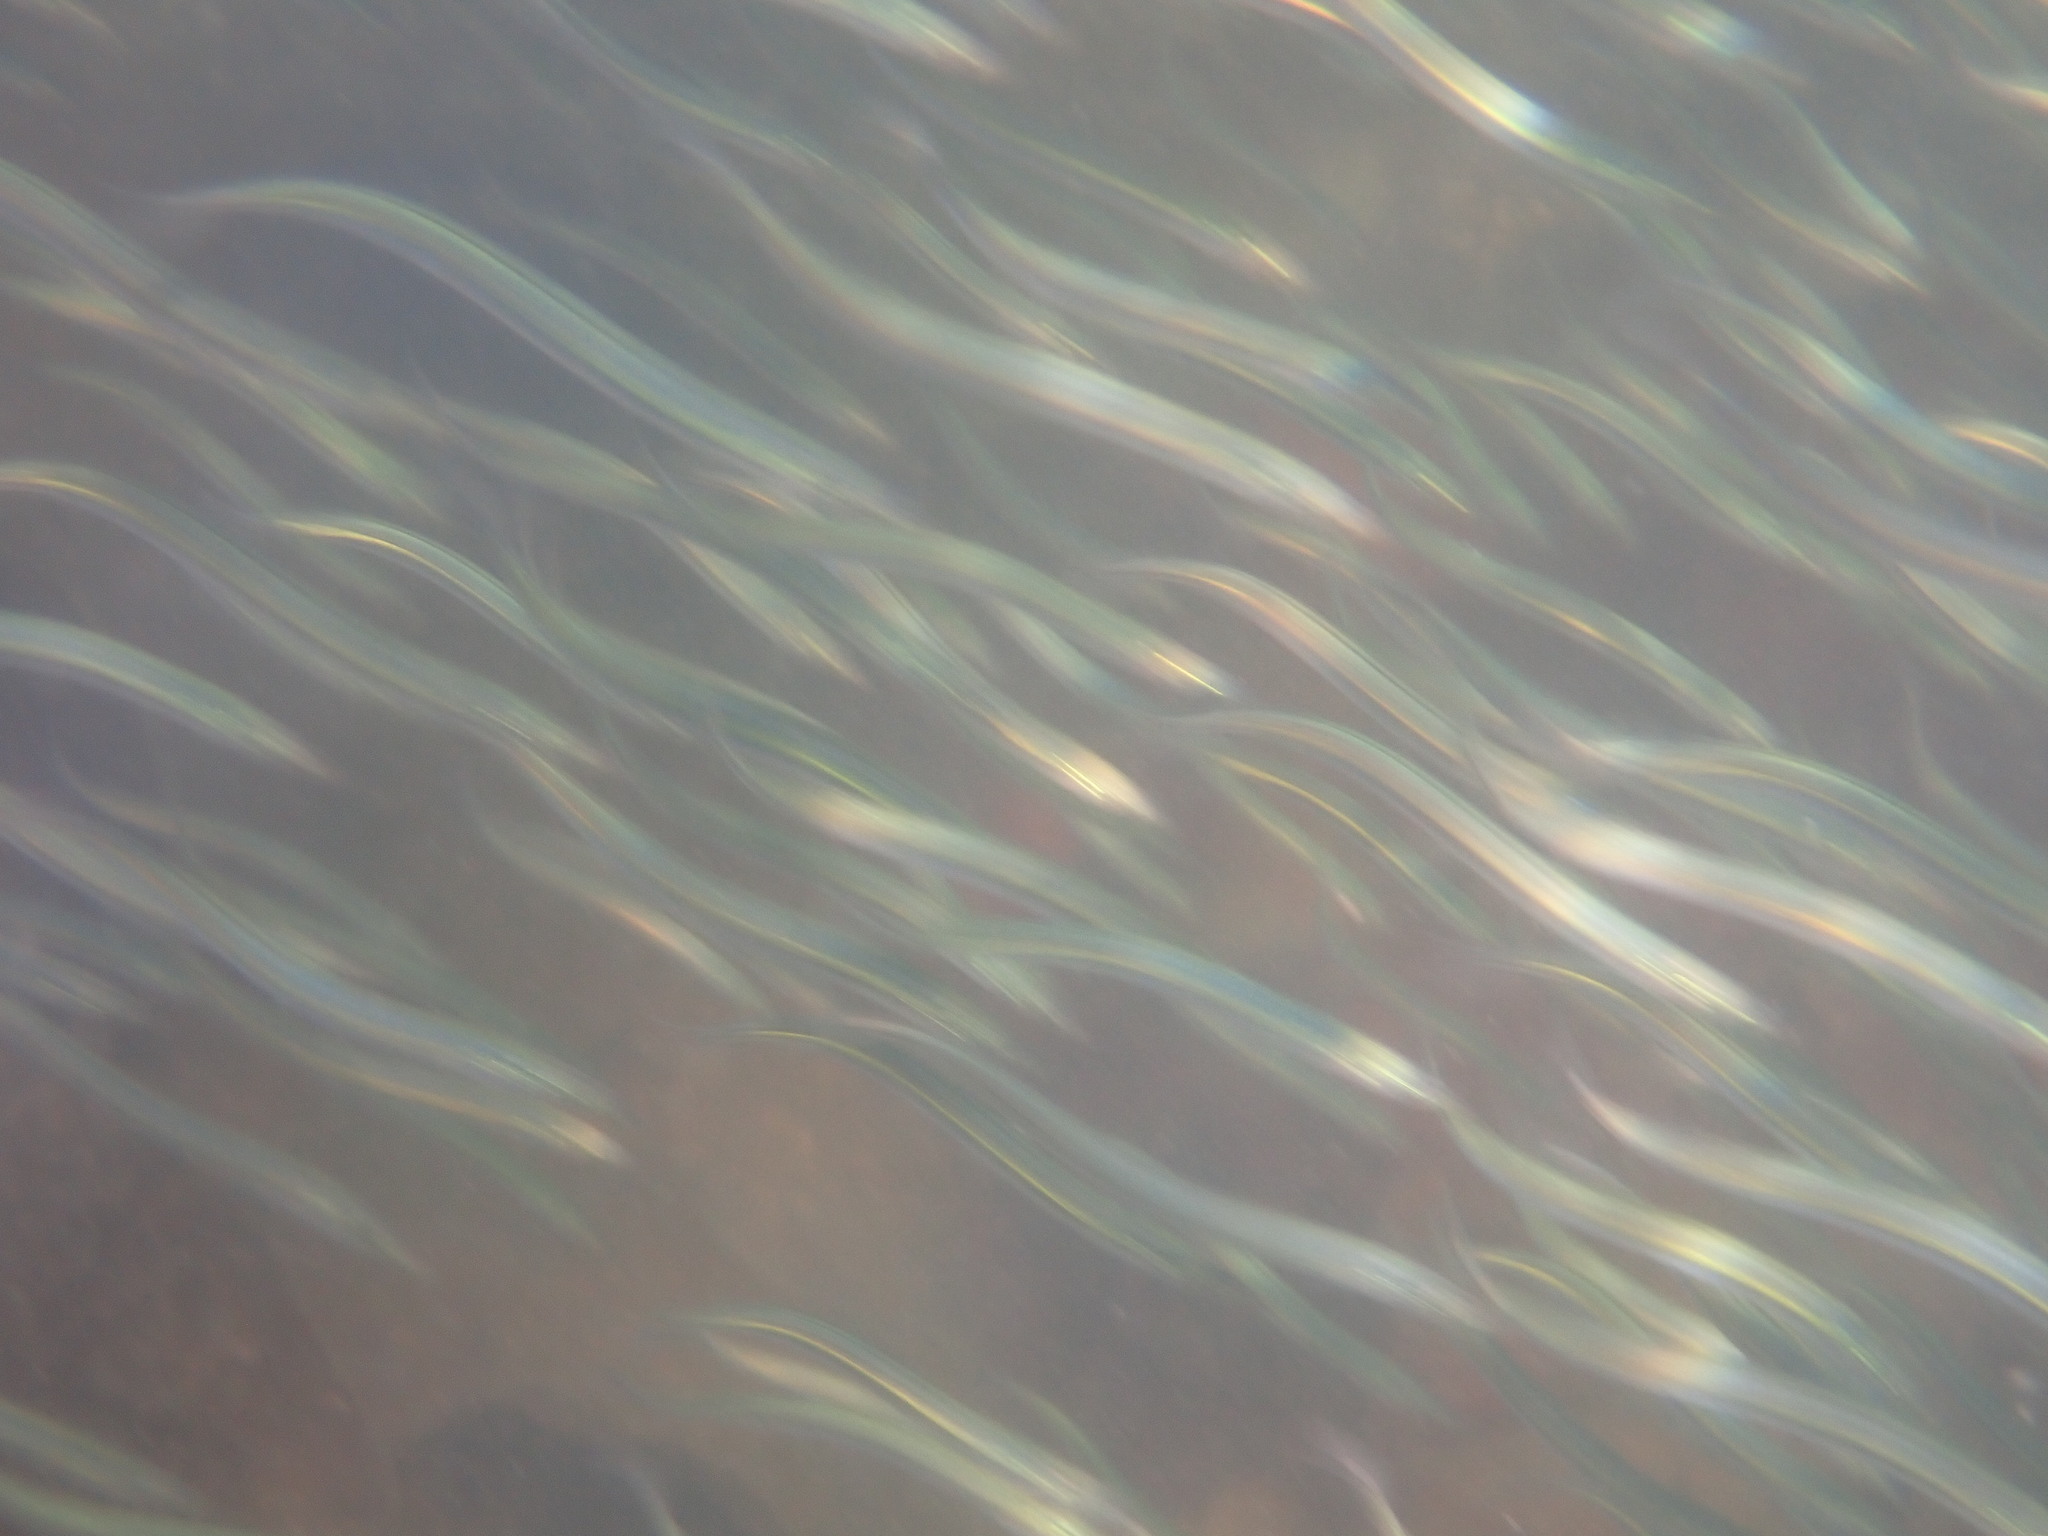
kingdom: Animalia
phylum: Chordata
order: Perciformes
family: Ammodytidae
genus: Ammodytes
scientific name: Ammodytes personatus
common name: Japanese sand lance
